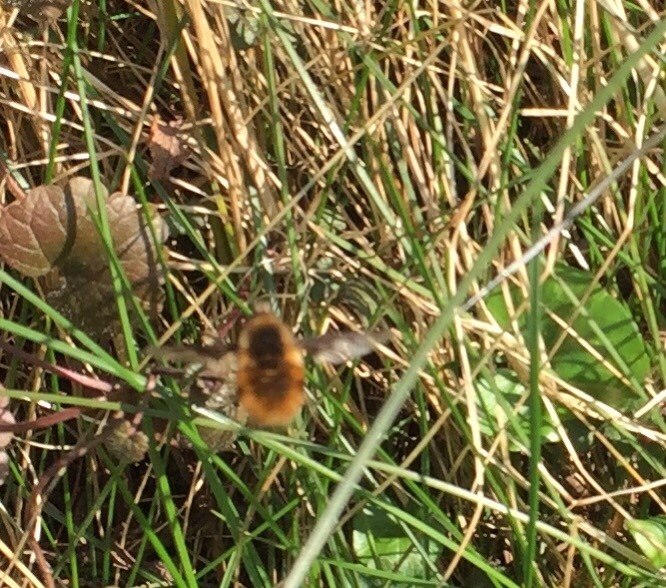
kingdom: Animalia
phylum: Arthropoda
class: Insecta
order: Diptera
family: Bombyliidae
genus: Bombylius
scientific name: Bombylius major
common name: Bee fly
